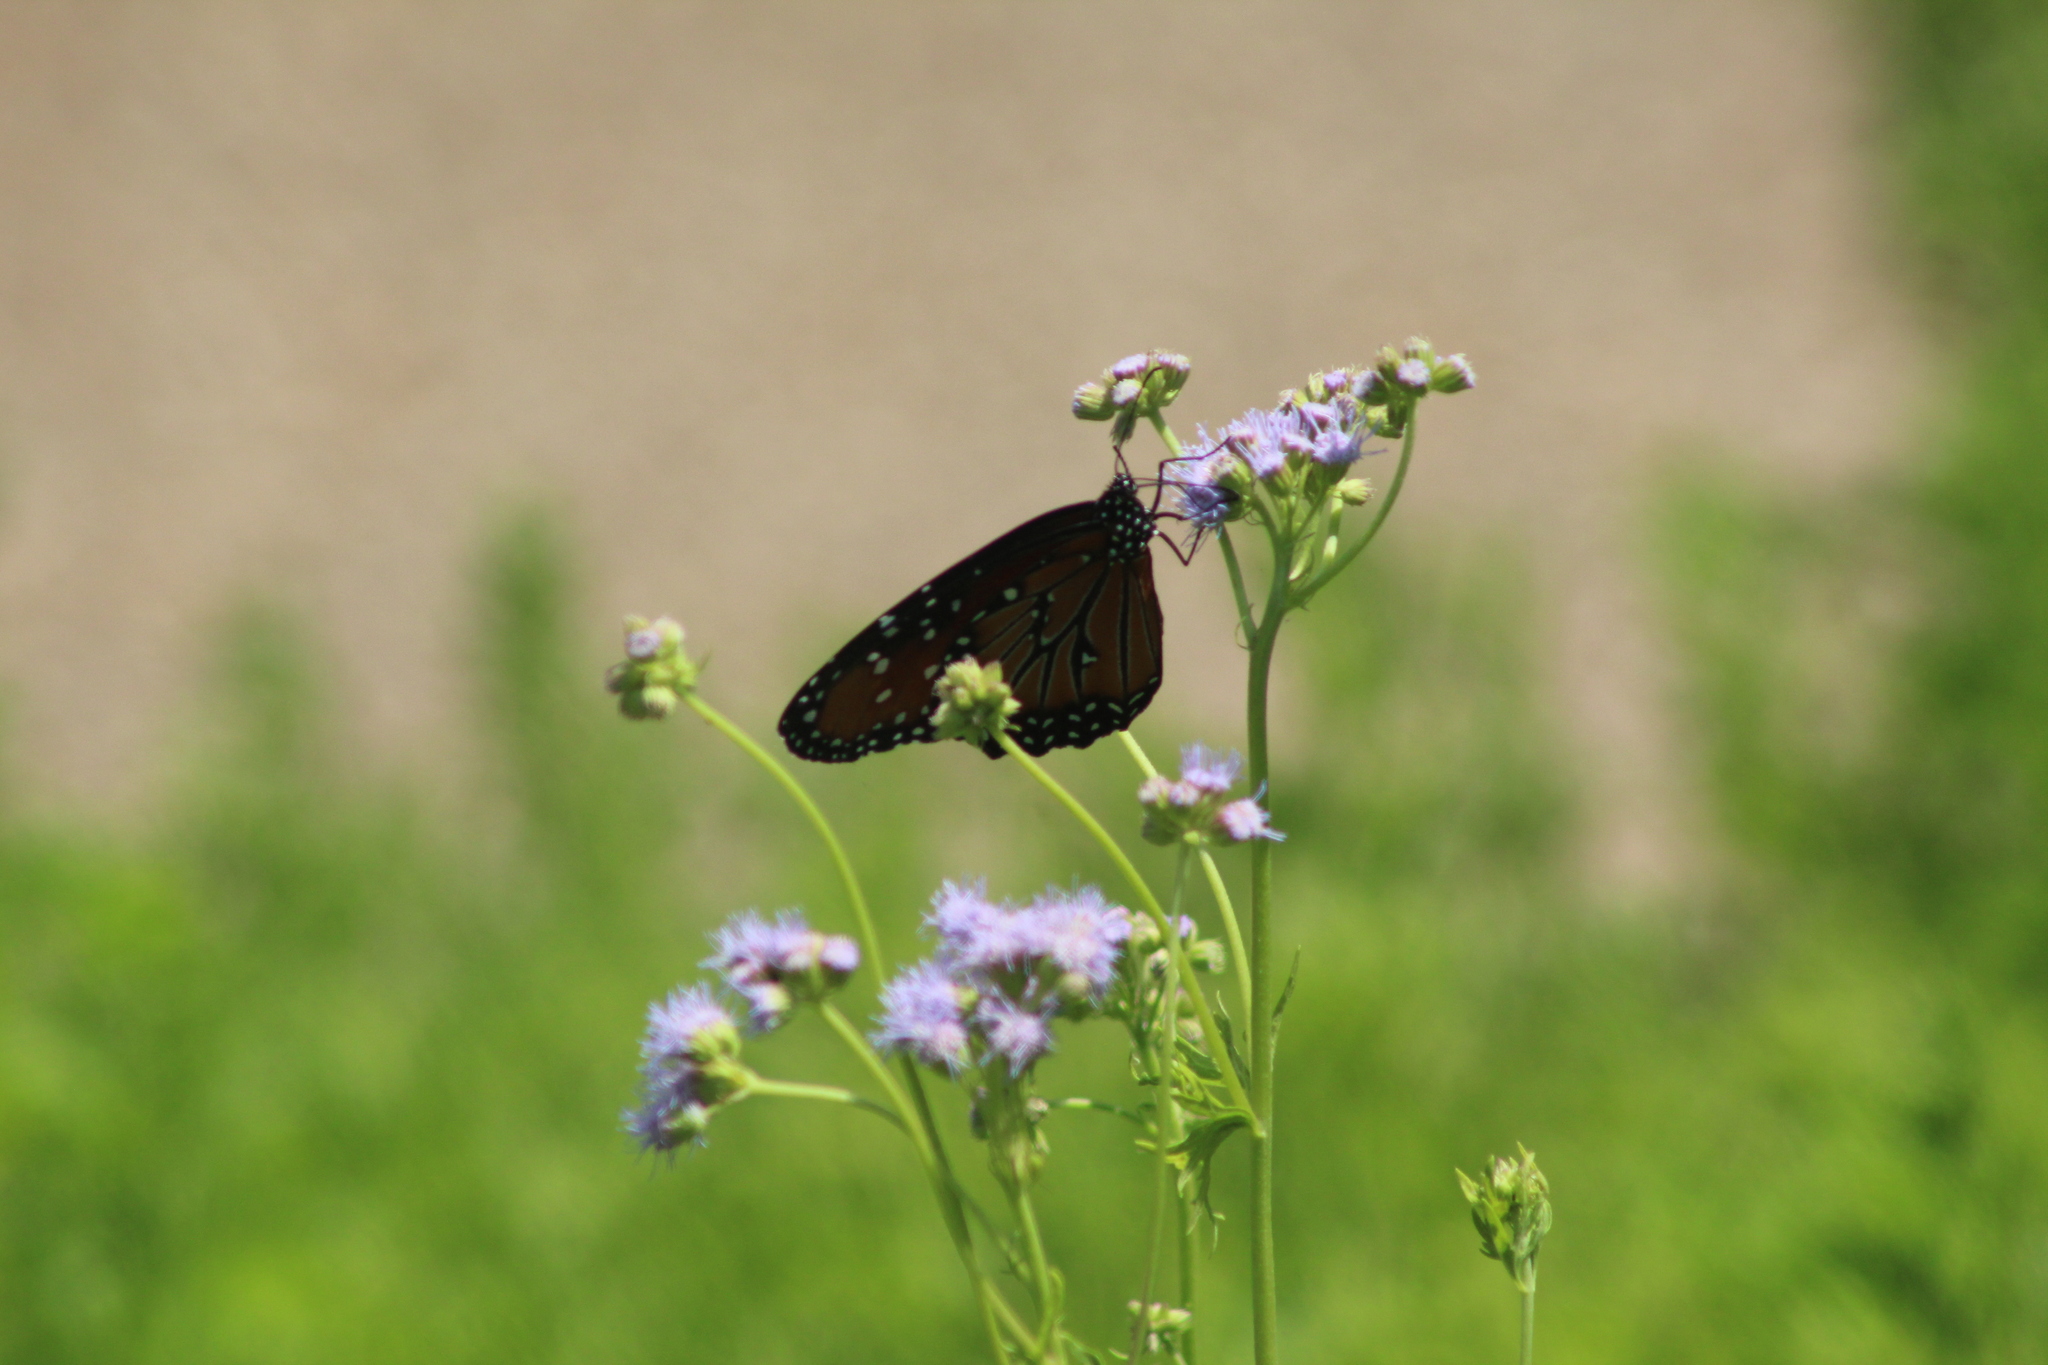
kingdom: Animalia
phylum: Arthropoda
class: Insecta
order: Lepidoptera
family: Nymphalidae
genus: Danaus
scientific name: Danaus gilippus
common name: Queen
